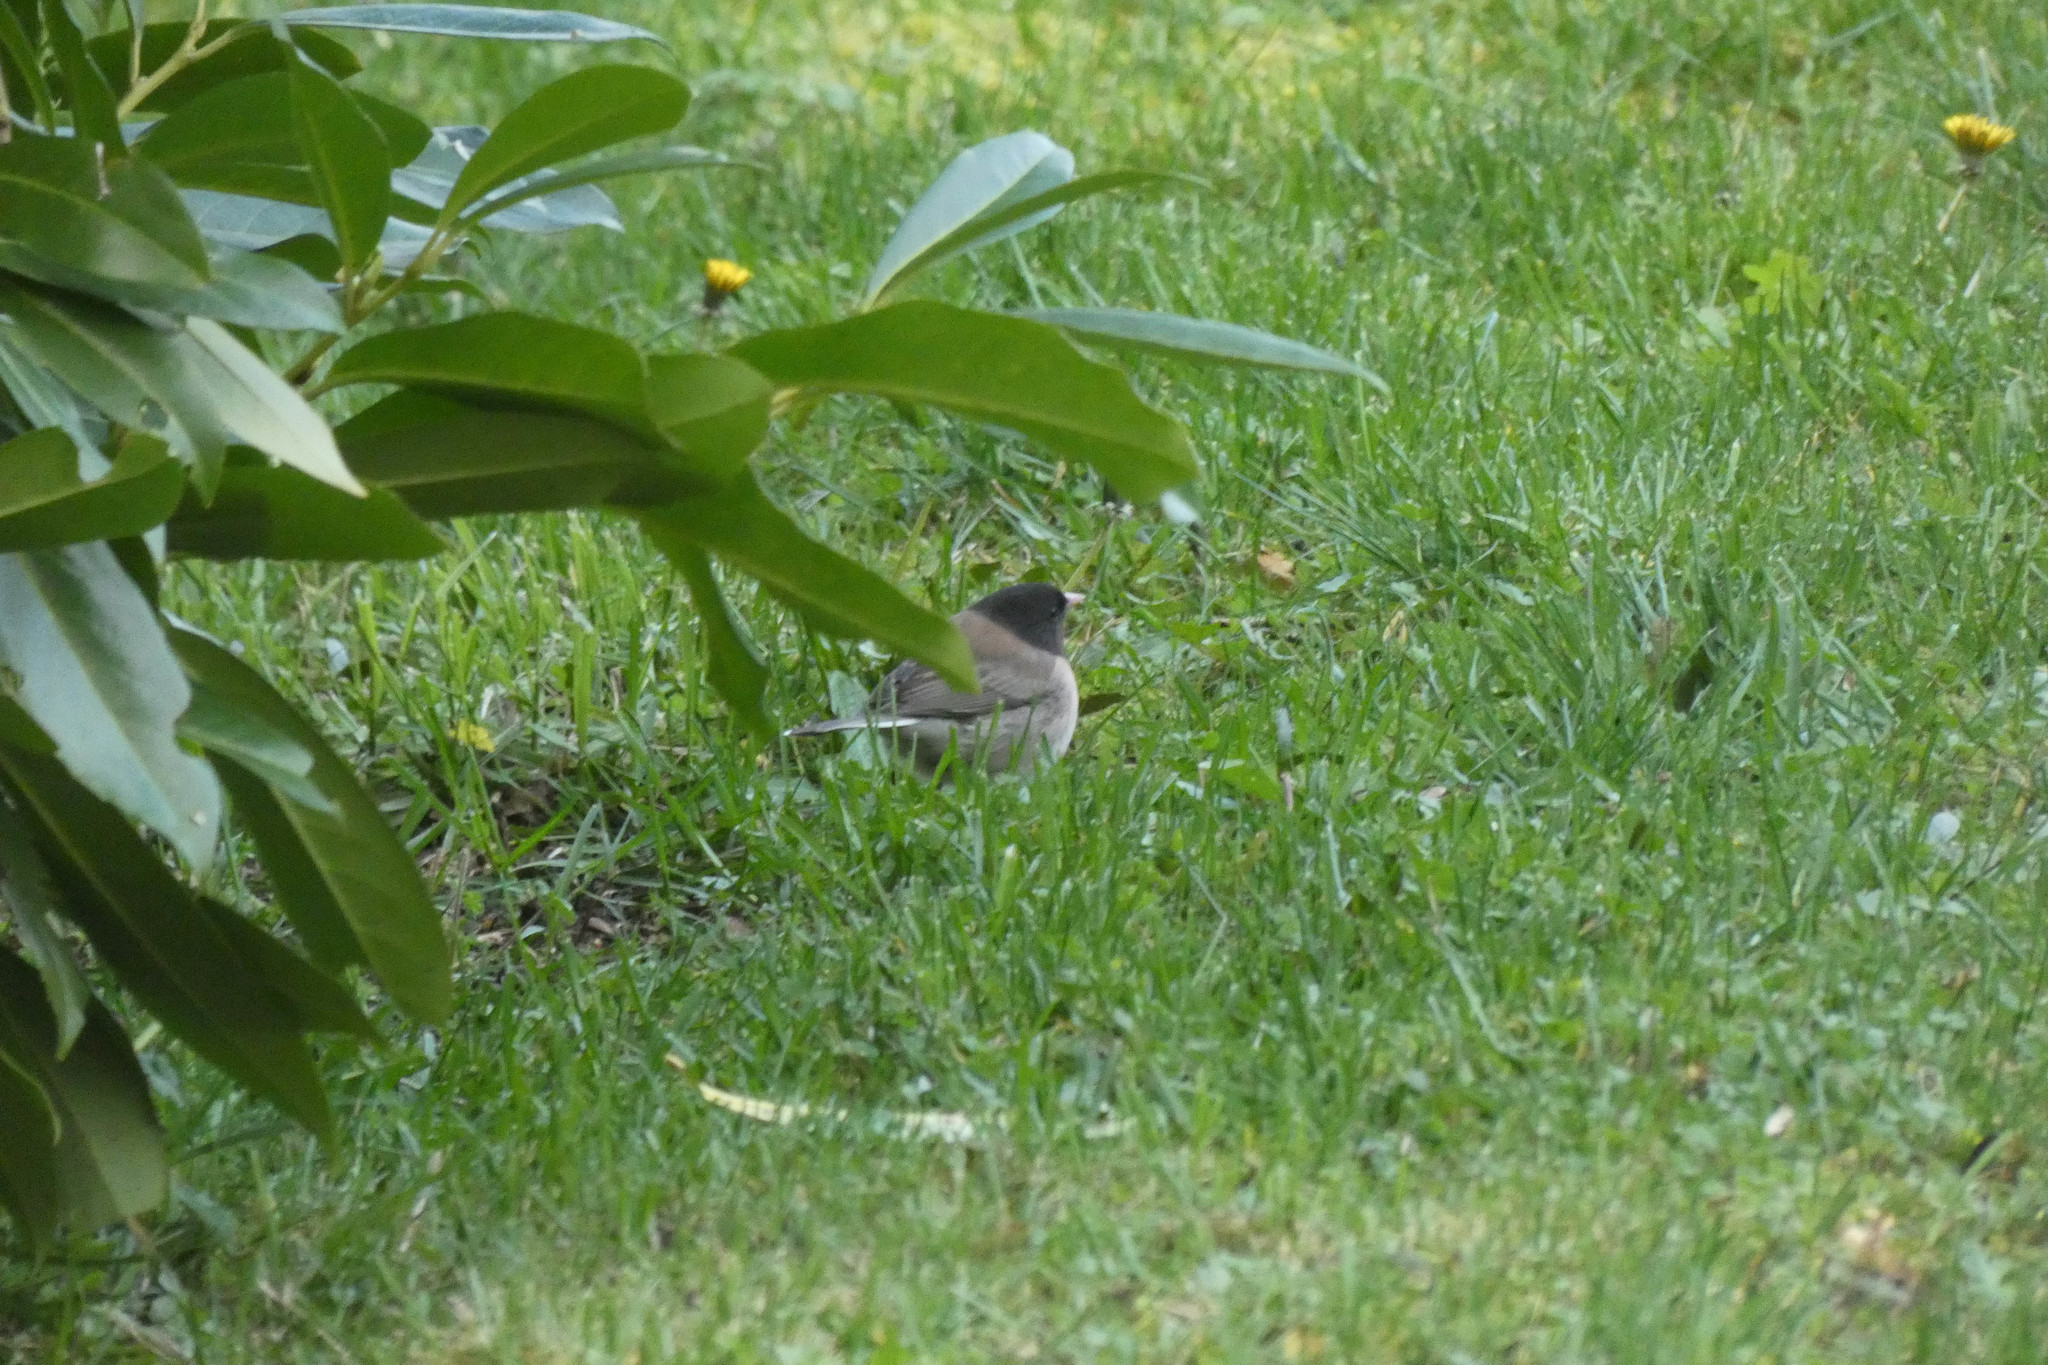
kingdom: Animalia
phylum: Chordata
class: Aves
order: Passeriformes
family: Passerellidae
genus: Junco
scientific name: Junco hyemalis
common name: Dark-eyed junco
